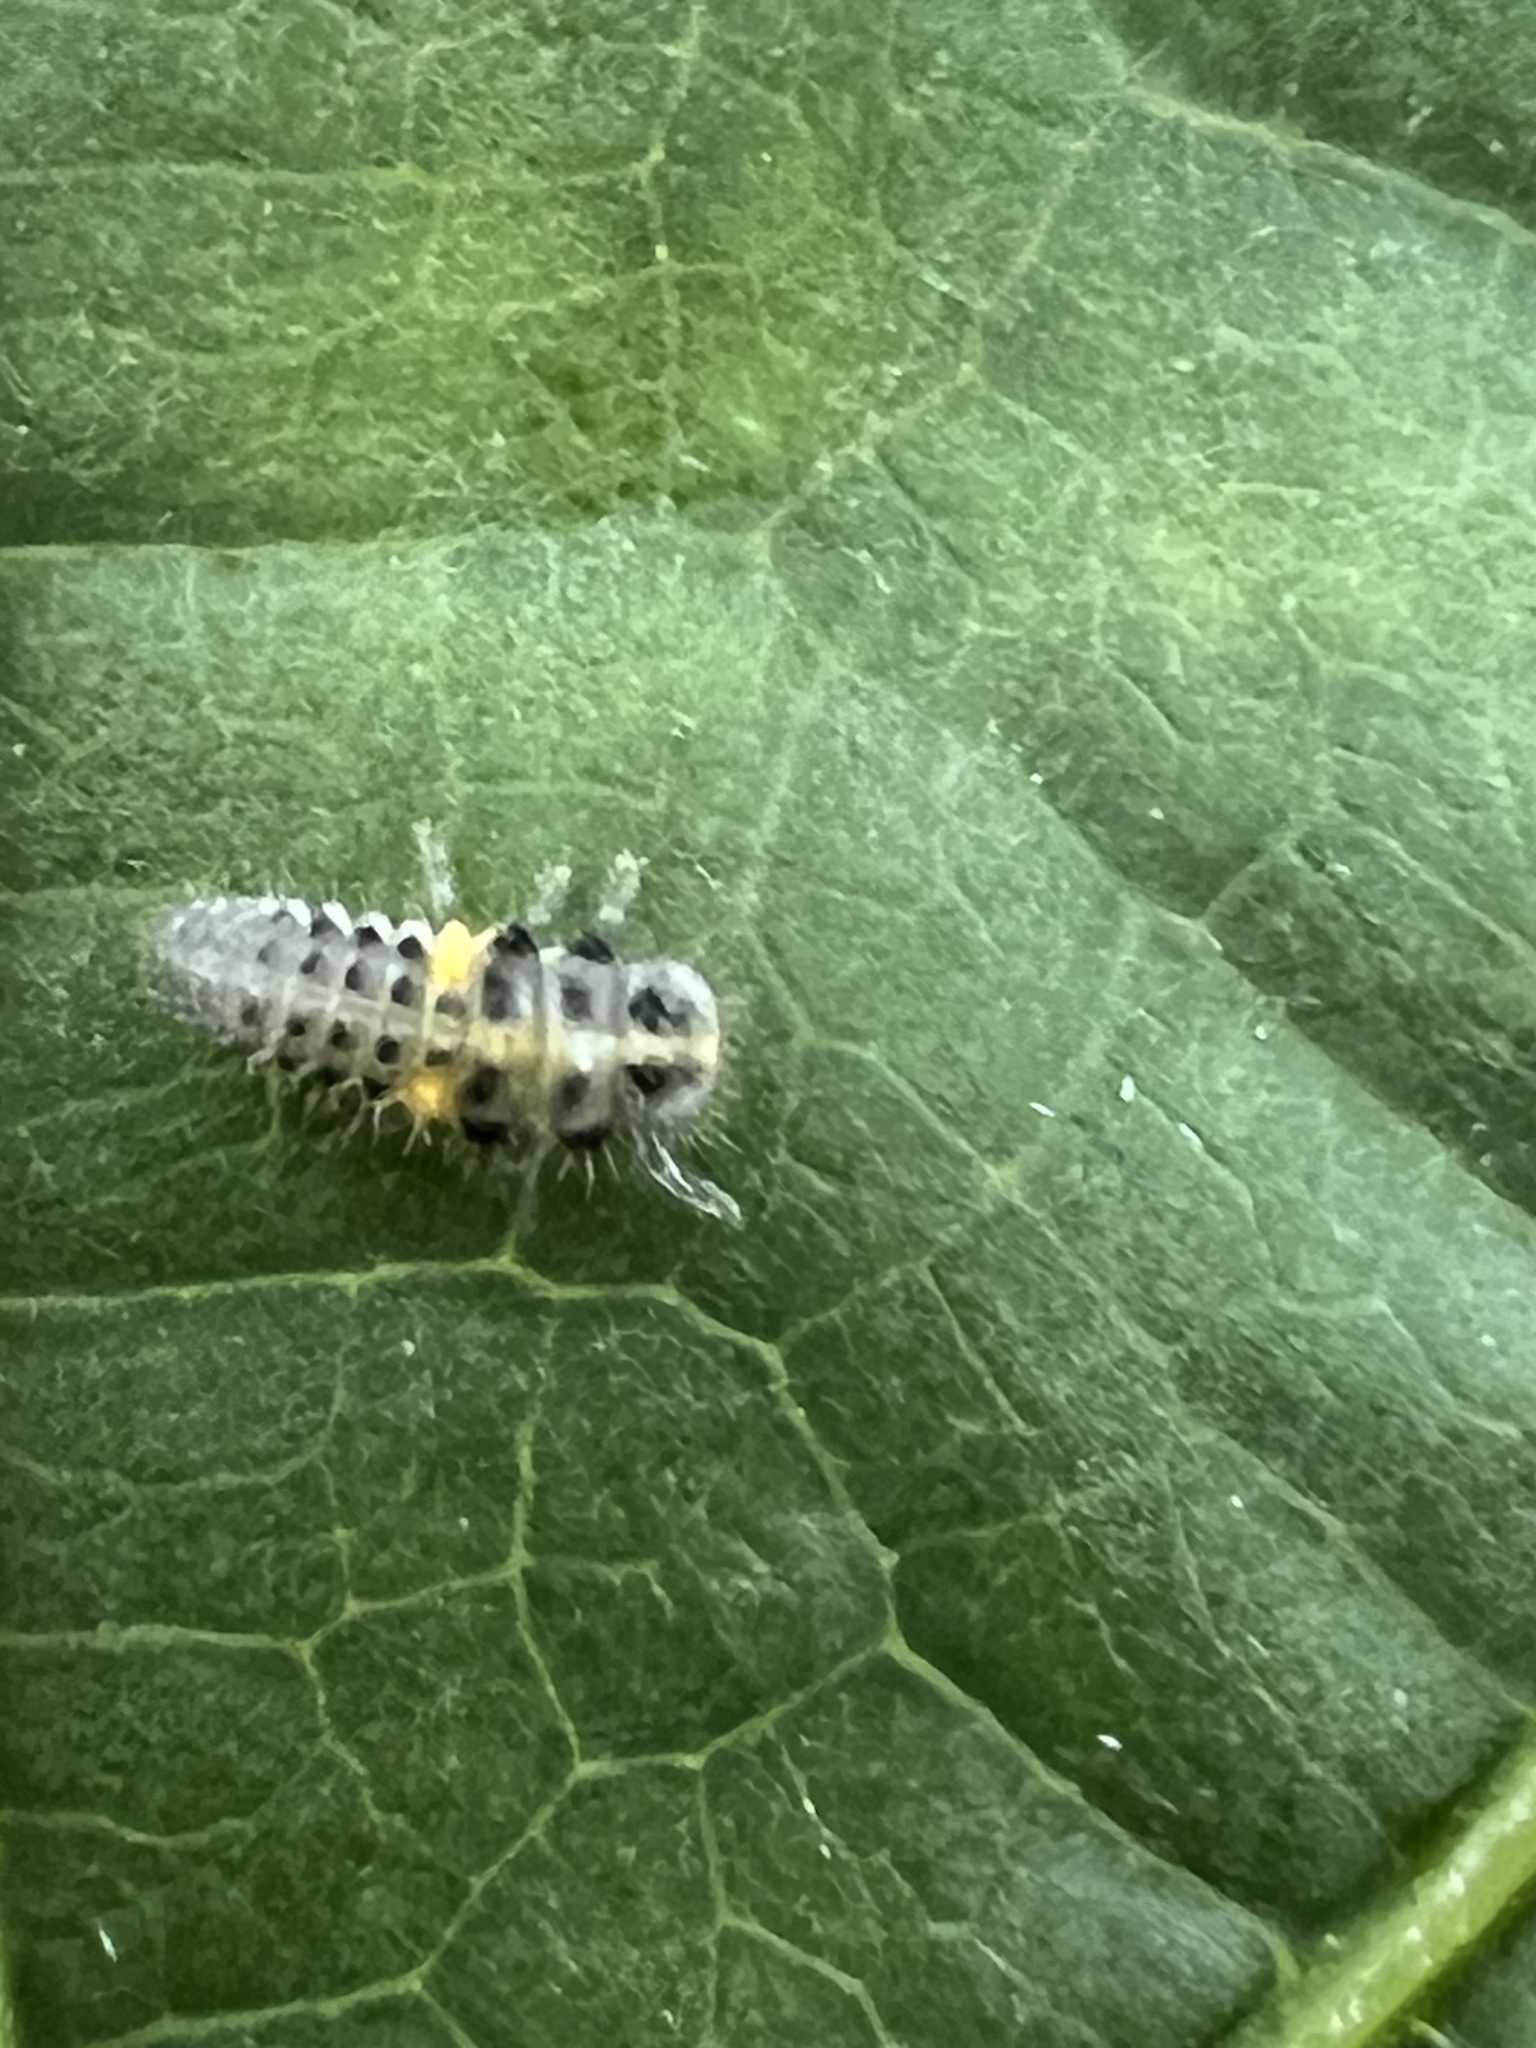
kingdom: Animalia
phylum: Arthropoda
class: Insecta
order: Coleoptera
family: Coccinellidae
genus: Psyllobora
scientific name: Psyllobora vigintimaculata
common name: Ladybird beetle
